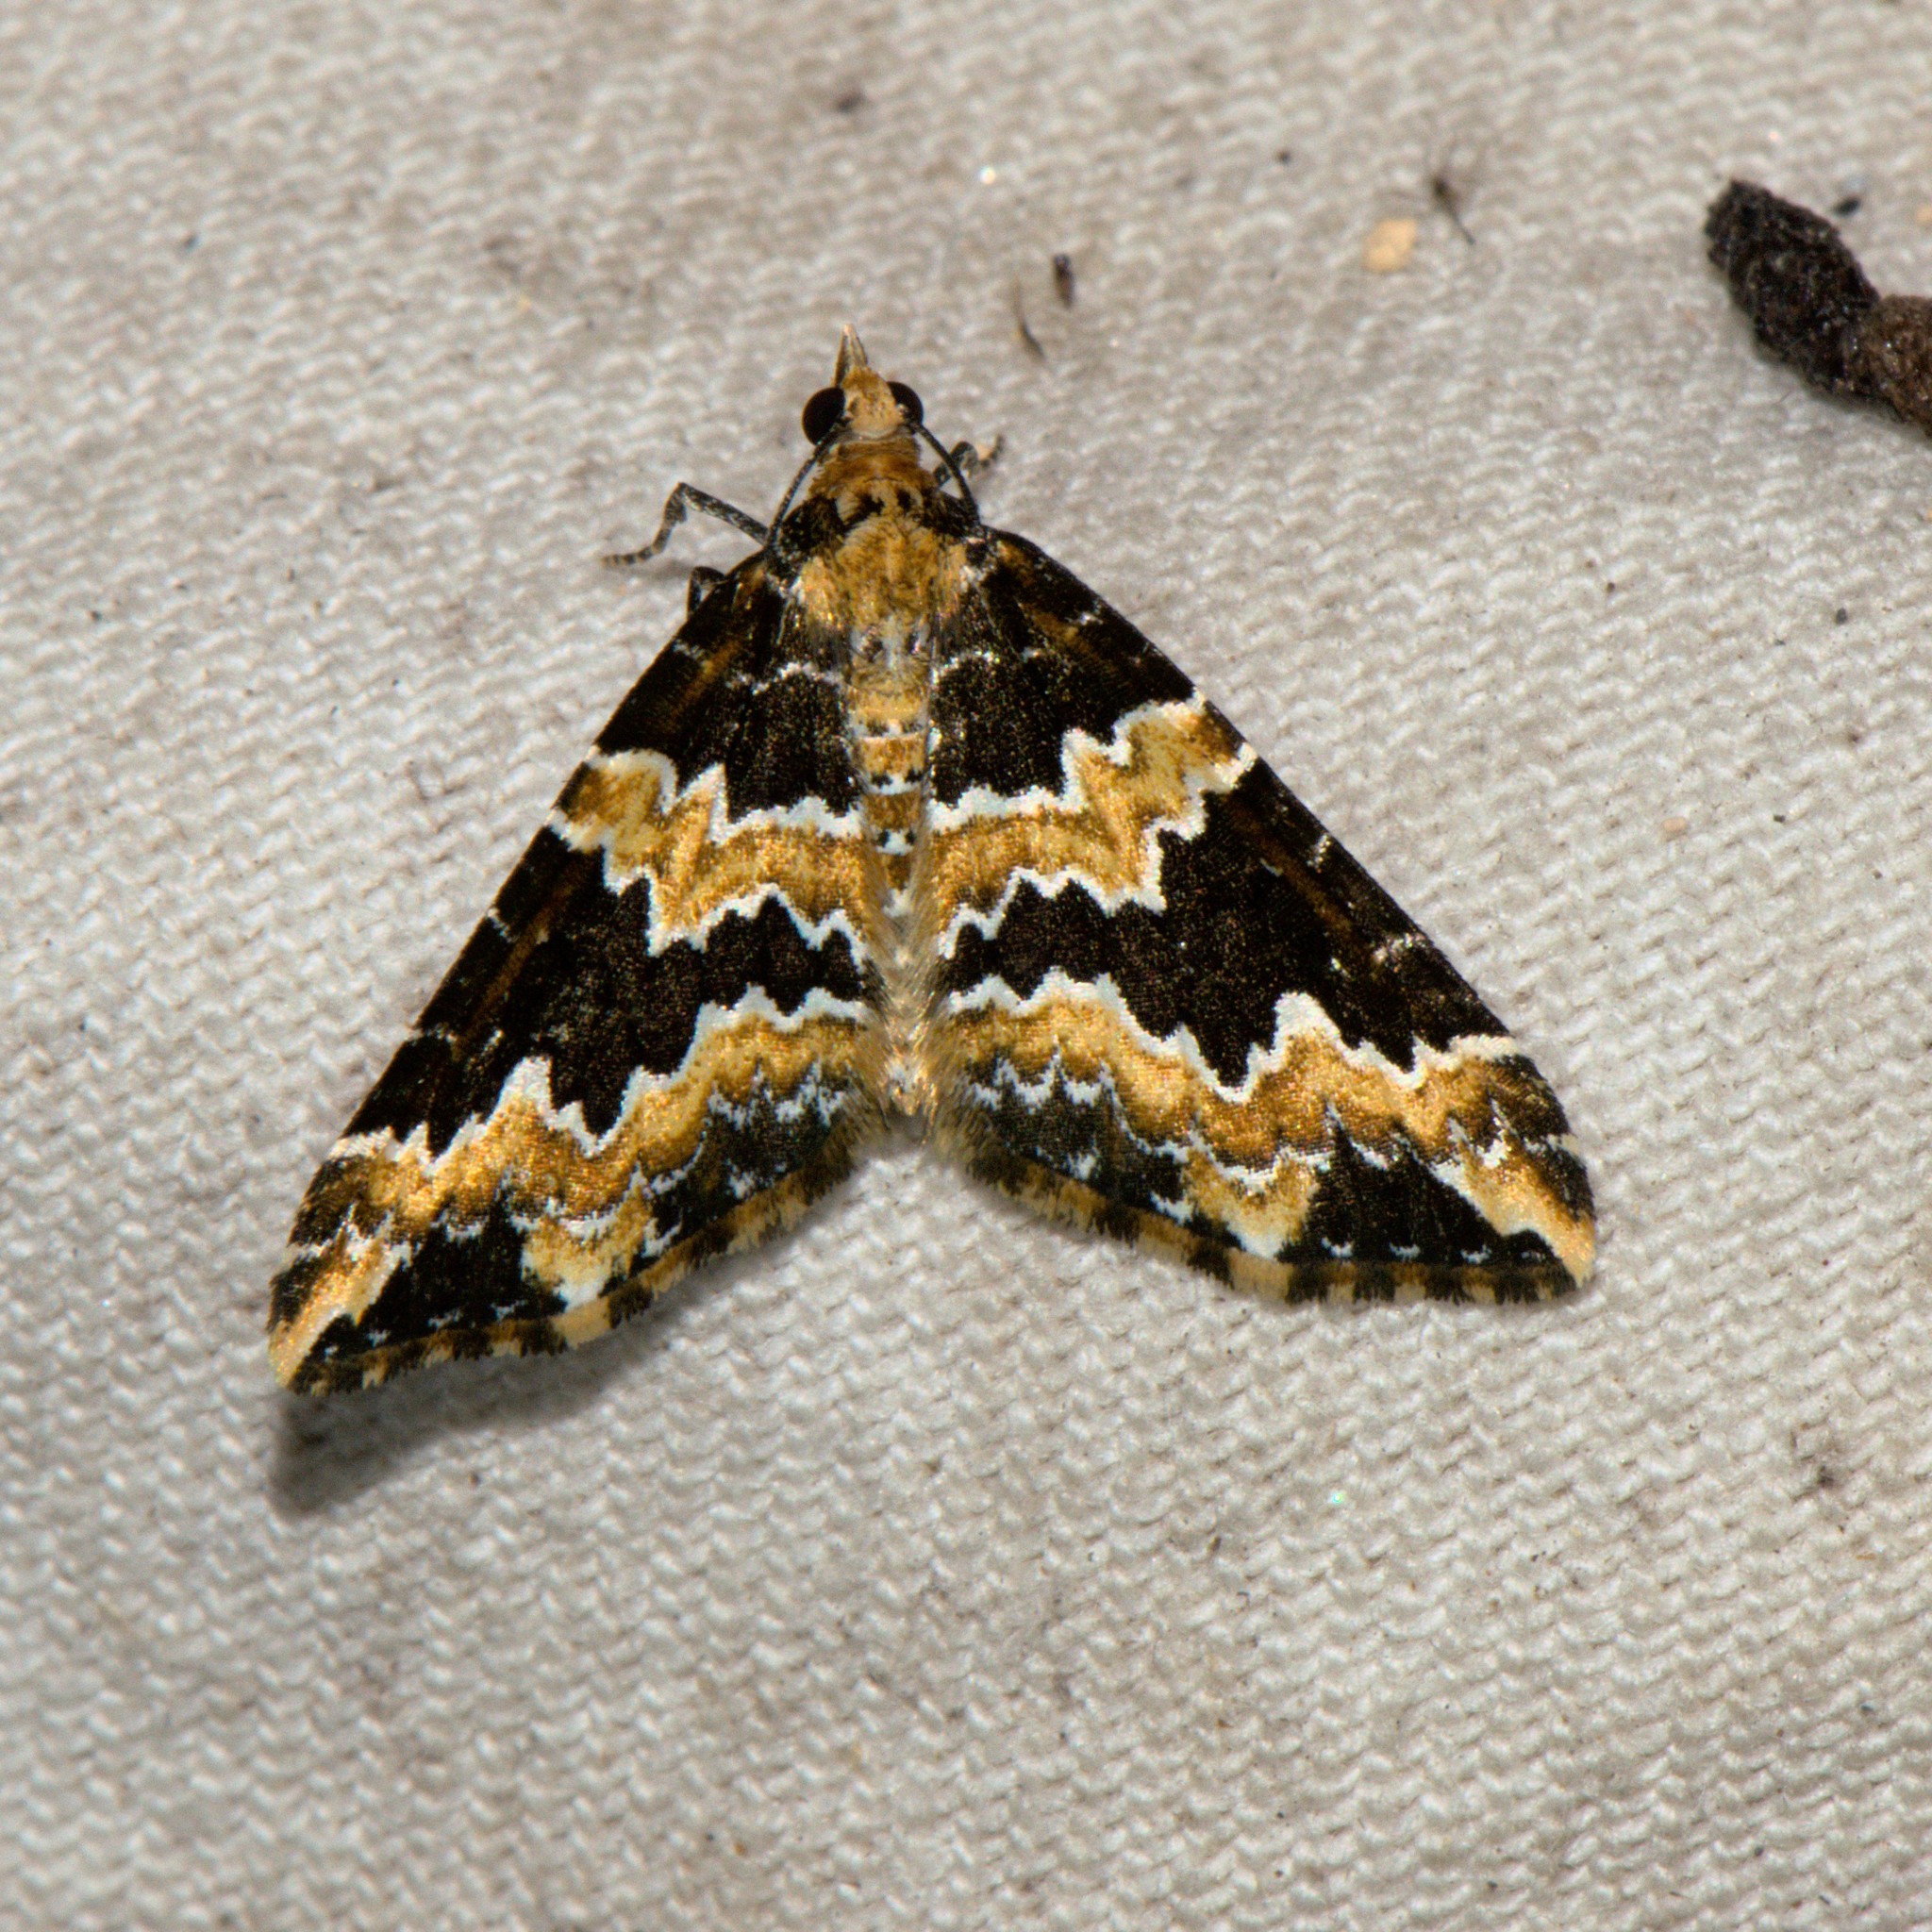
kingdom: Animalia
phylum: Arthropoda
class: Insecta
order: Lepidoptera
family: Geometridae
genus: Electrophaes
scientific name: Electrophaes marginata
